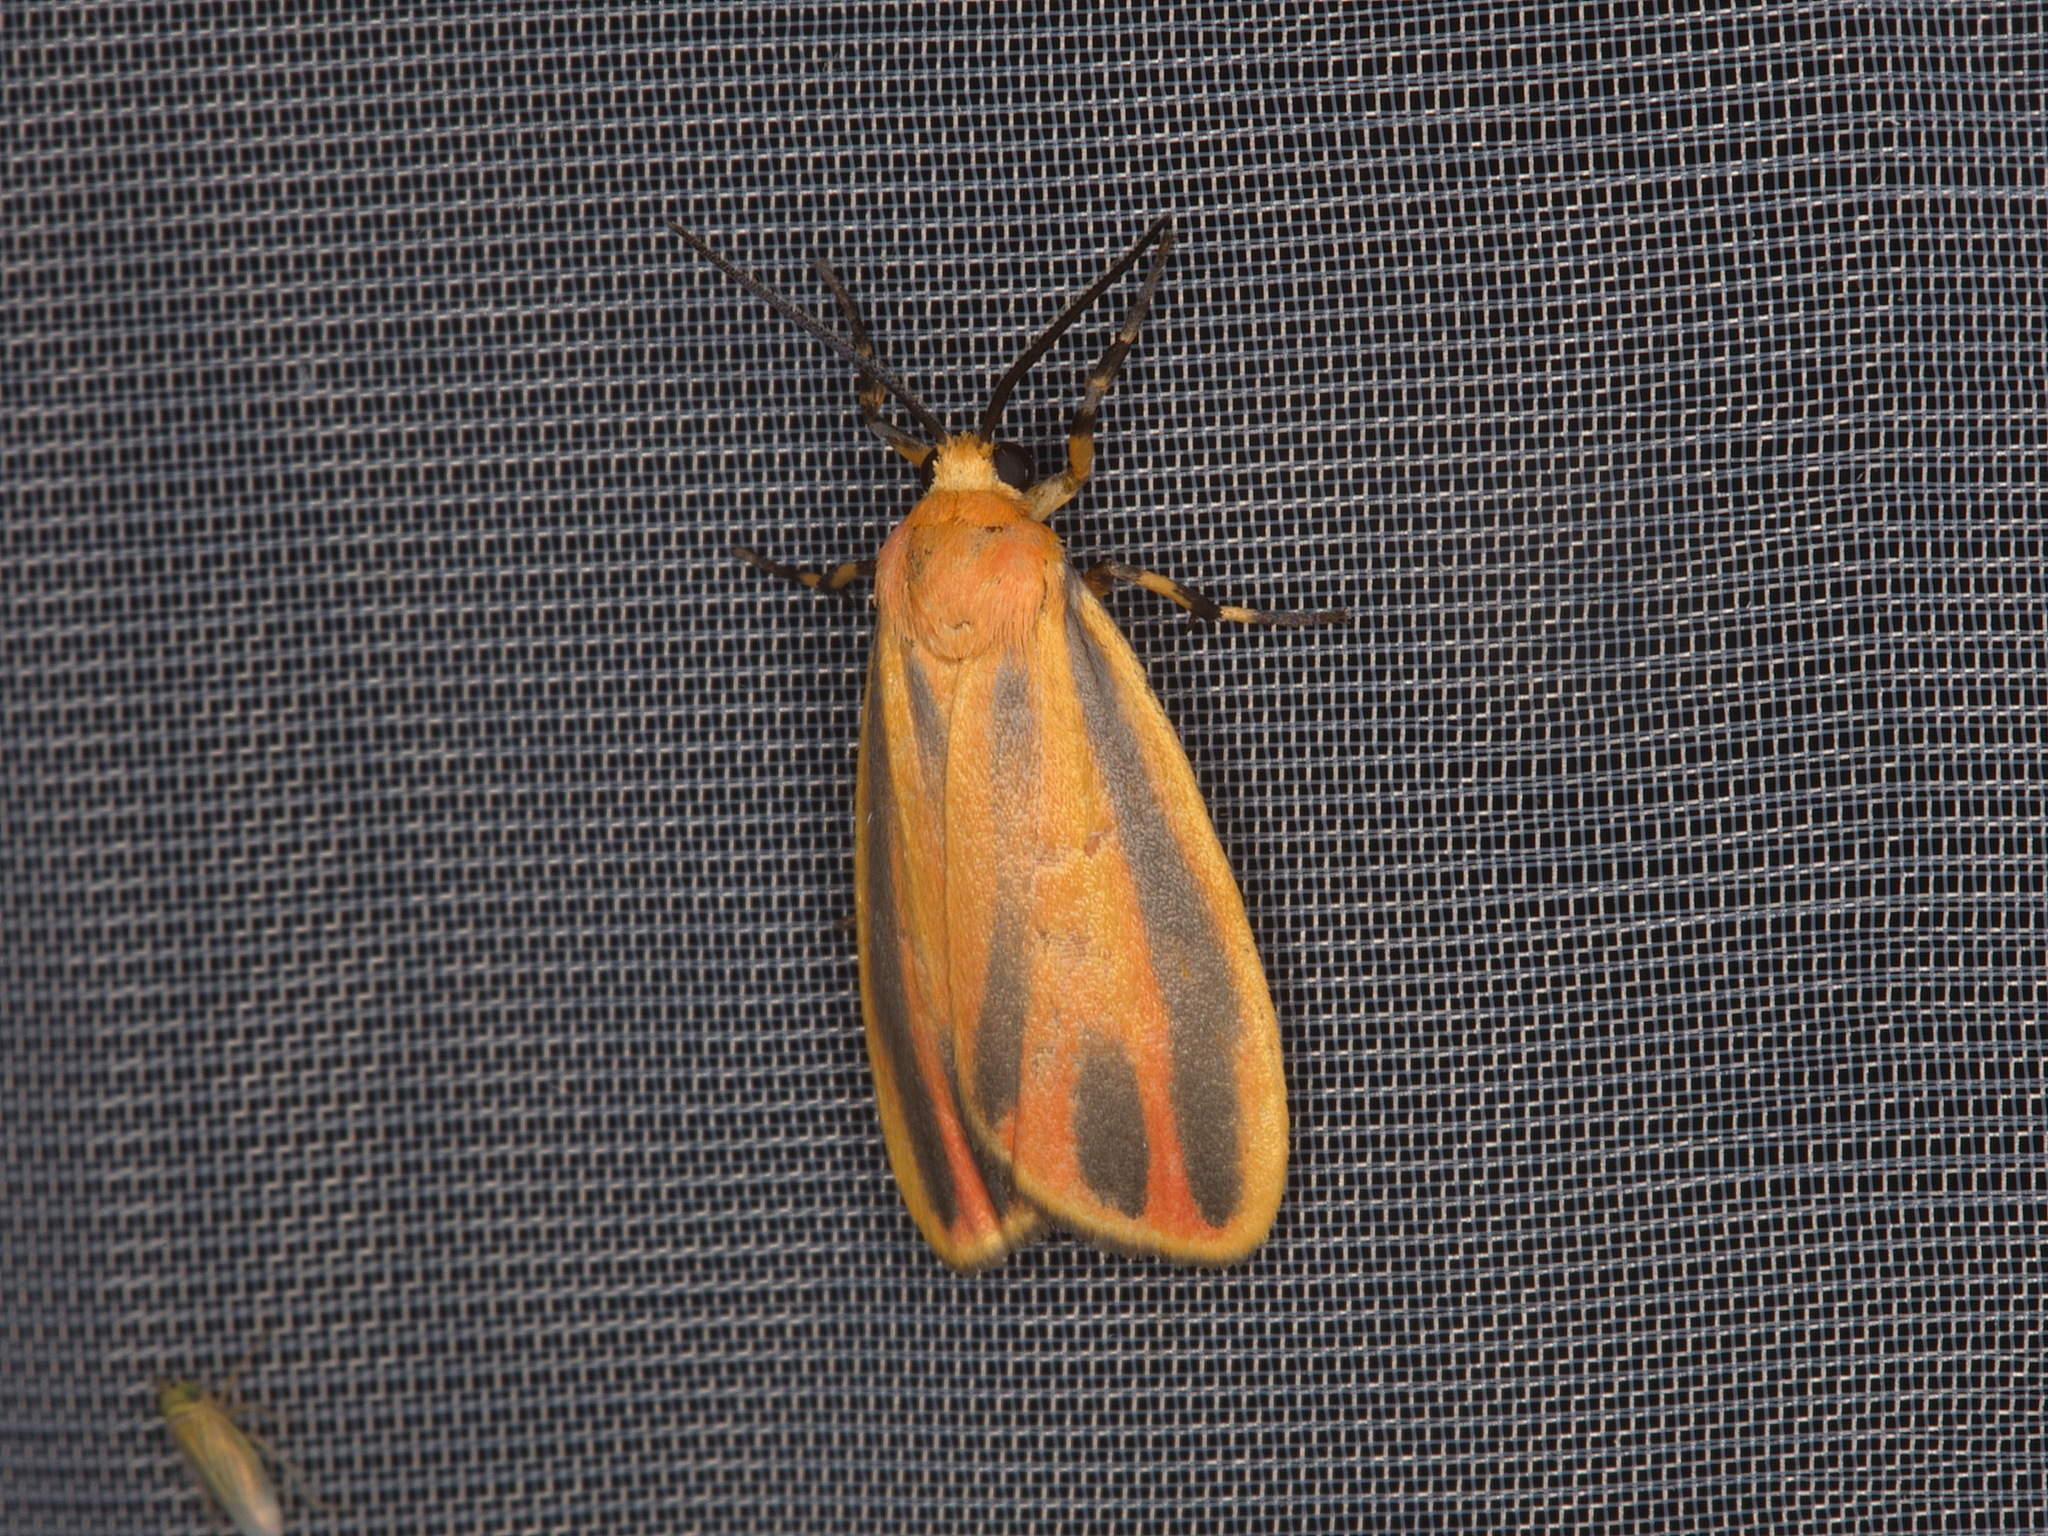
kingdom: Animalia
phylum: Arthropoda
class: Insecta
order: Lepidoptera
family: Erebidae
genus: Hypoprepia
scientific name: Hypoprepia fucosa
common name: Painted lichen moth
